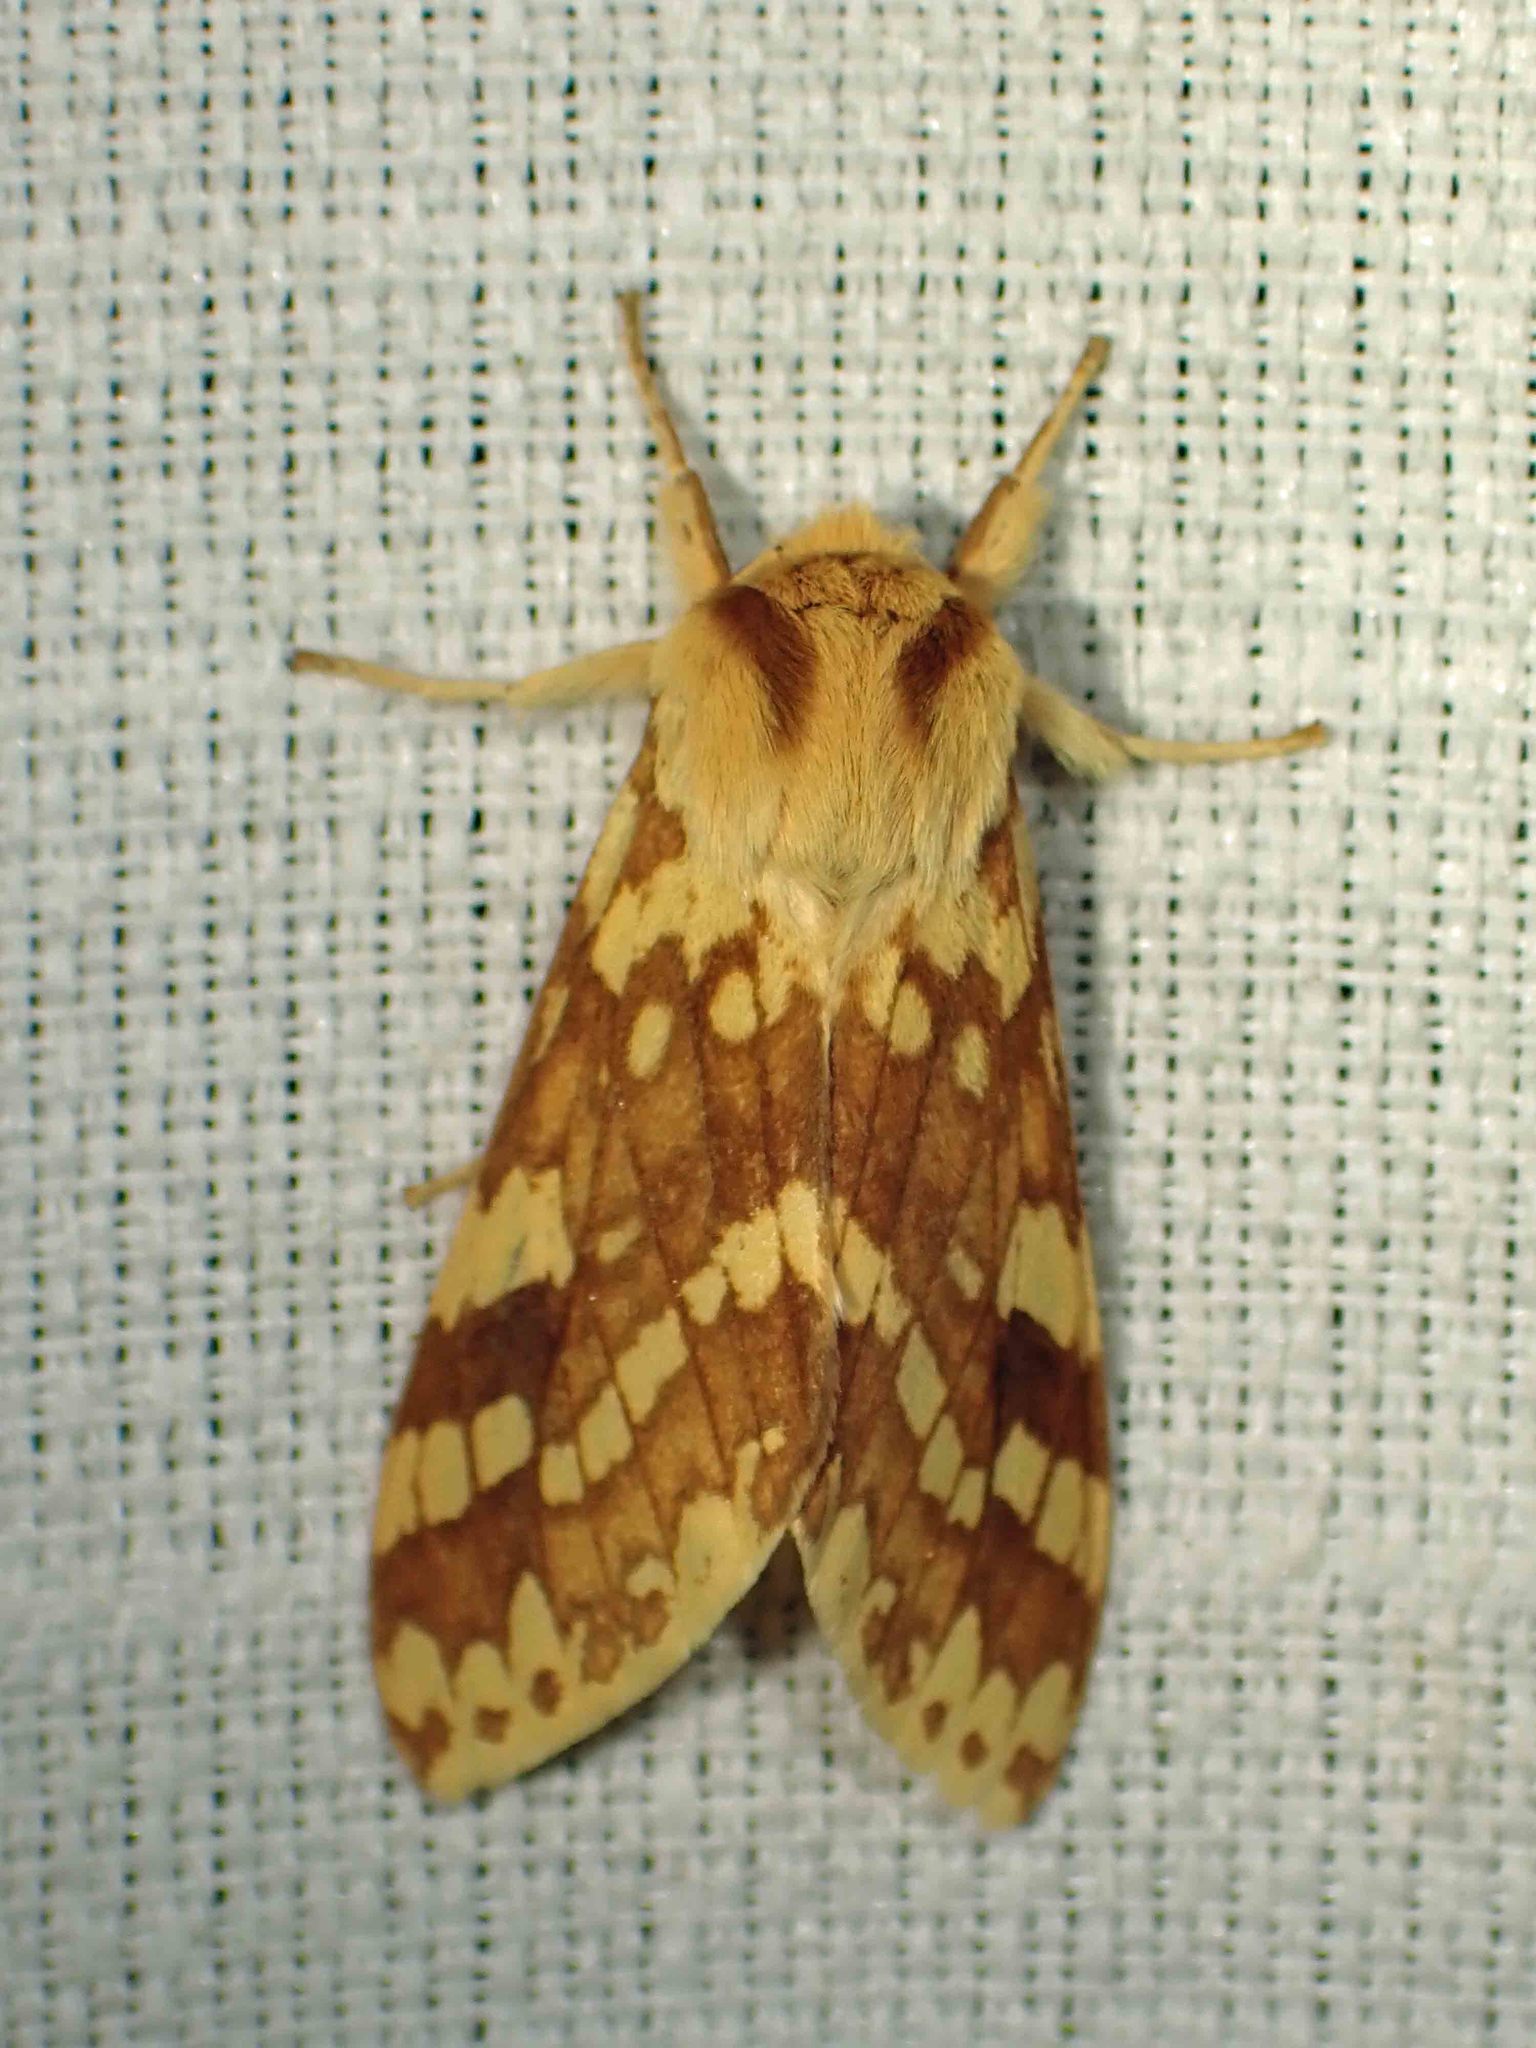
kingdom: Animalia
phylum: Arthropoda
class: Insecta
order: Lepidoptera
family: Erebidae
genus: Lophocampa
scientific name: Lophocampa maculata
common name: Spotted tussock moth
